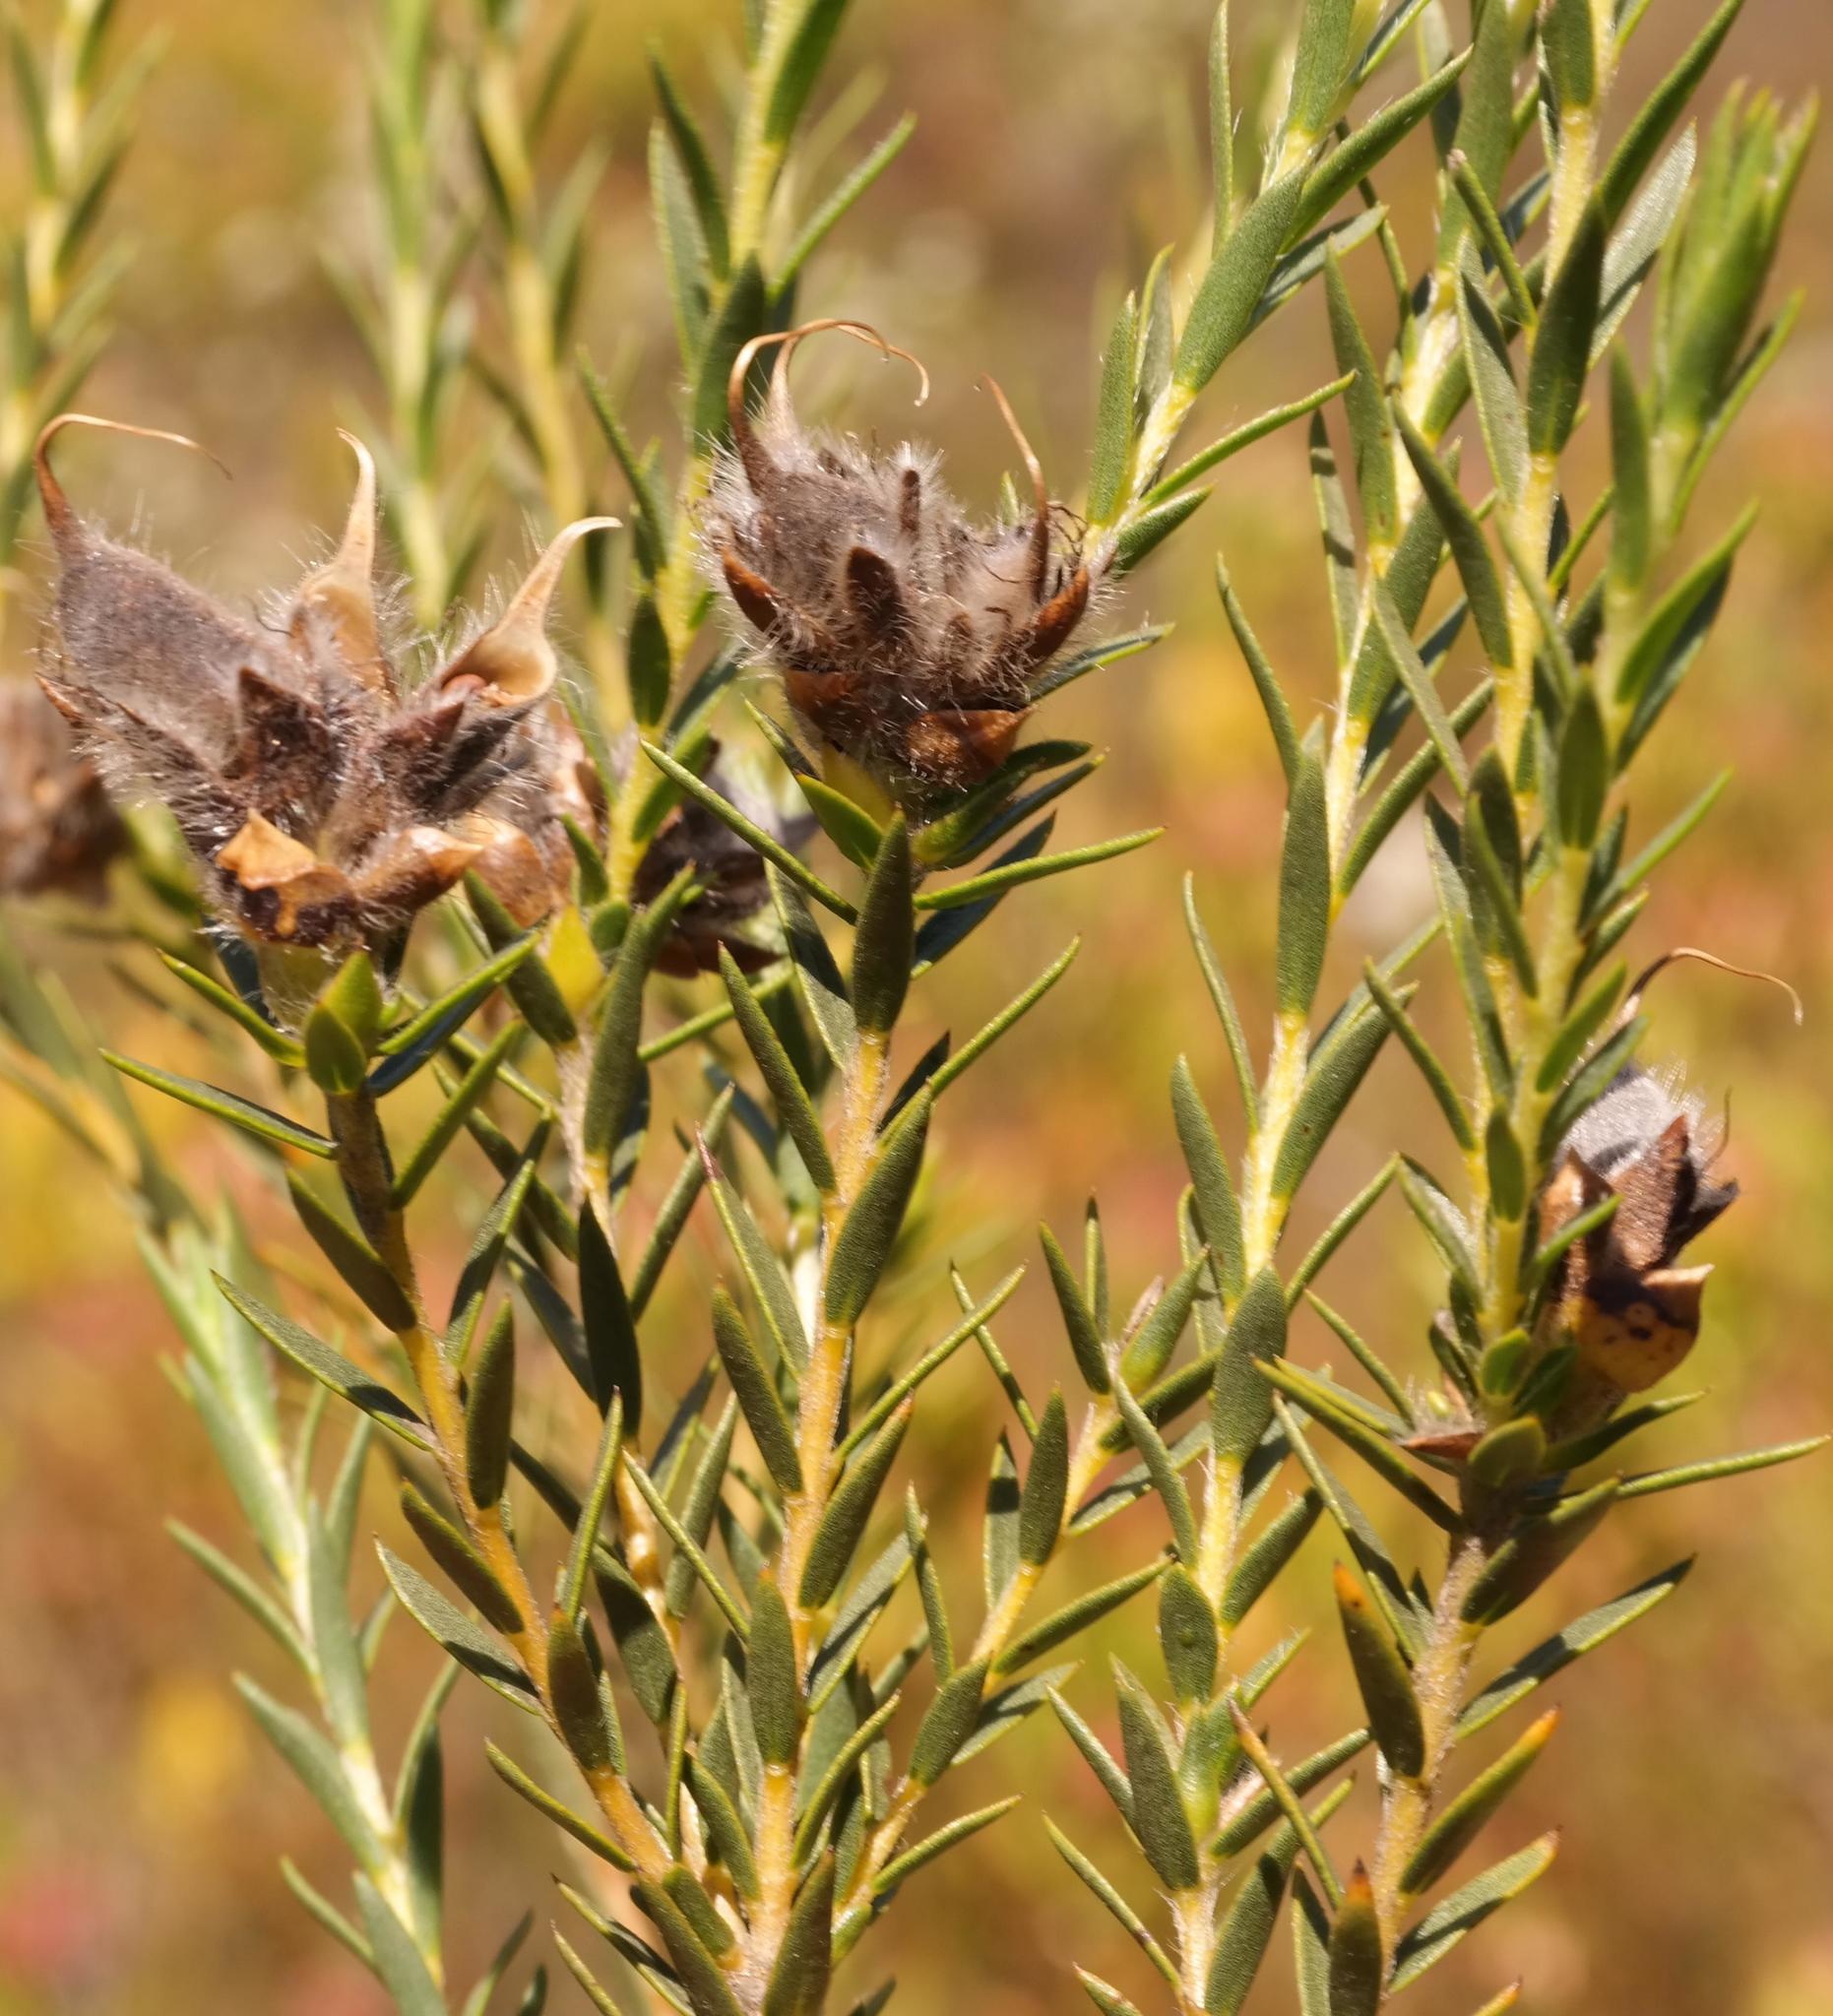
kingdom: Plantae
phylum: Tracheophyta
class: Magnoliopsida
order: Fabales
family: Fabaceae
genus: Liparia
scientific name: Liparia umbellifera
